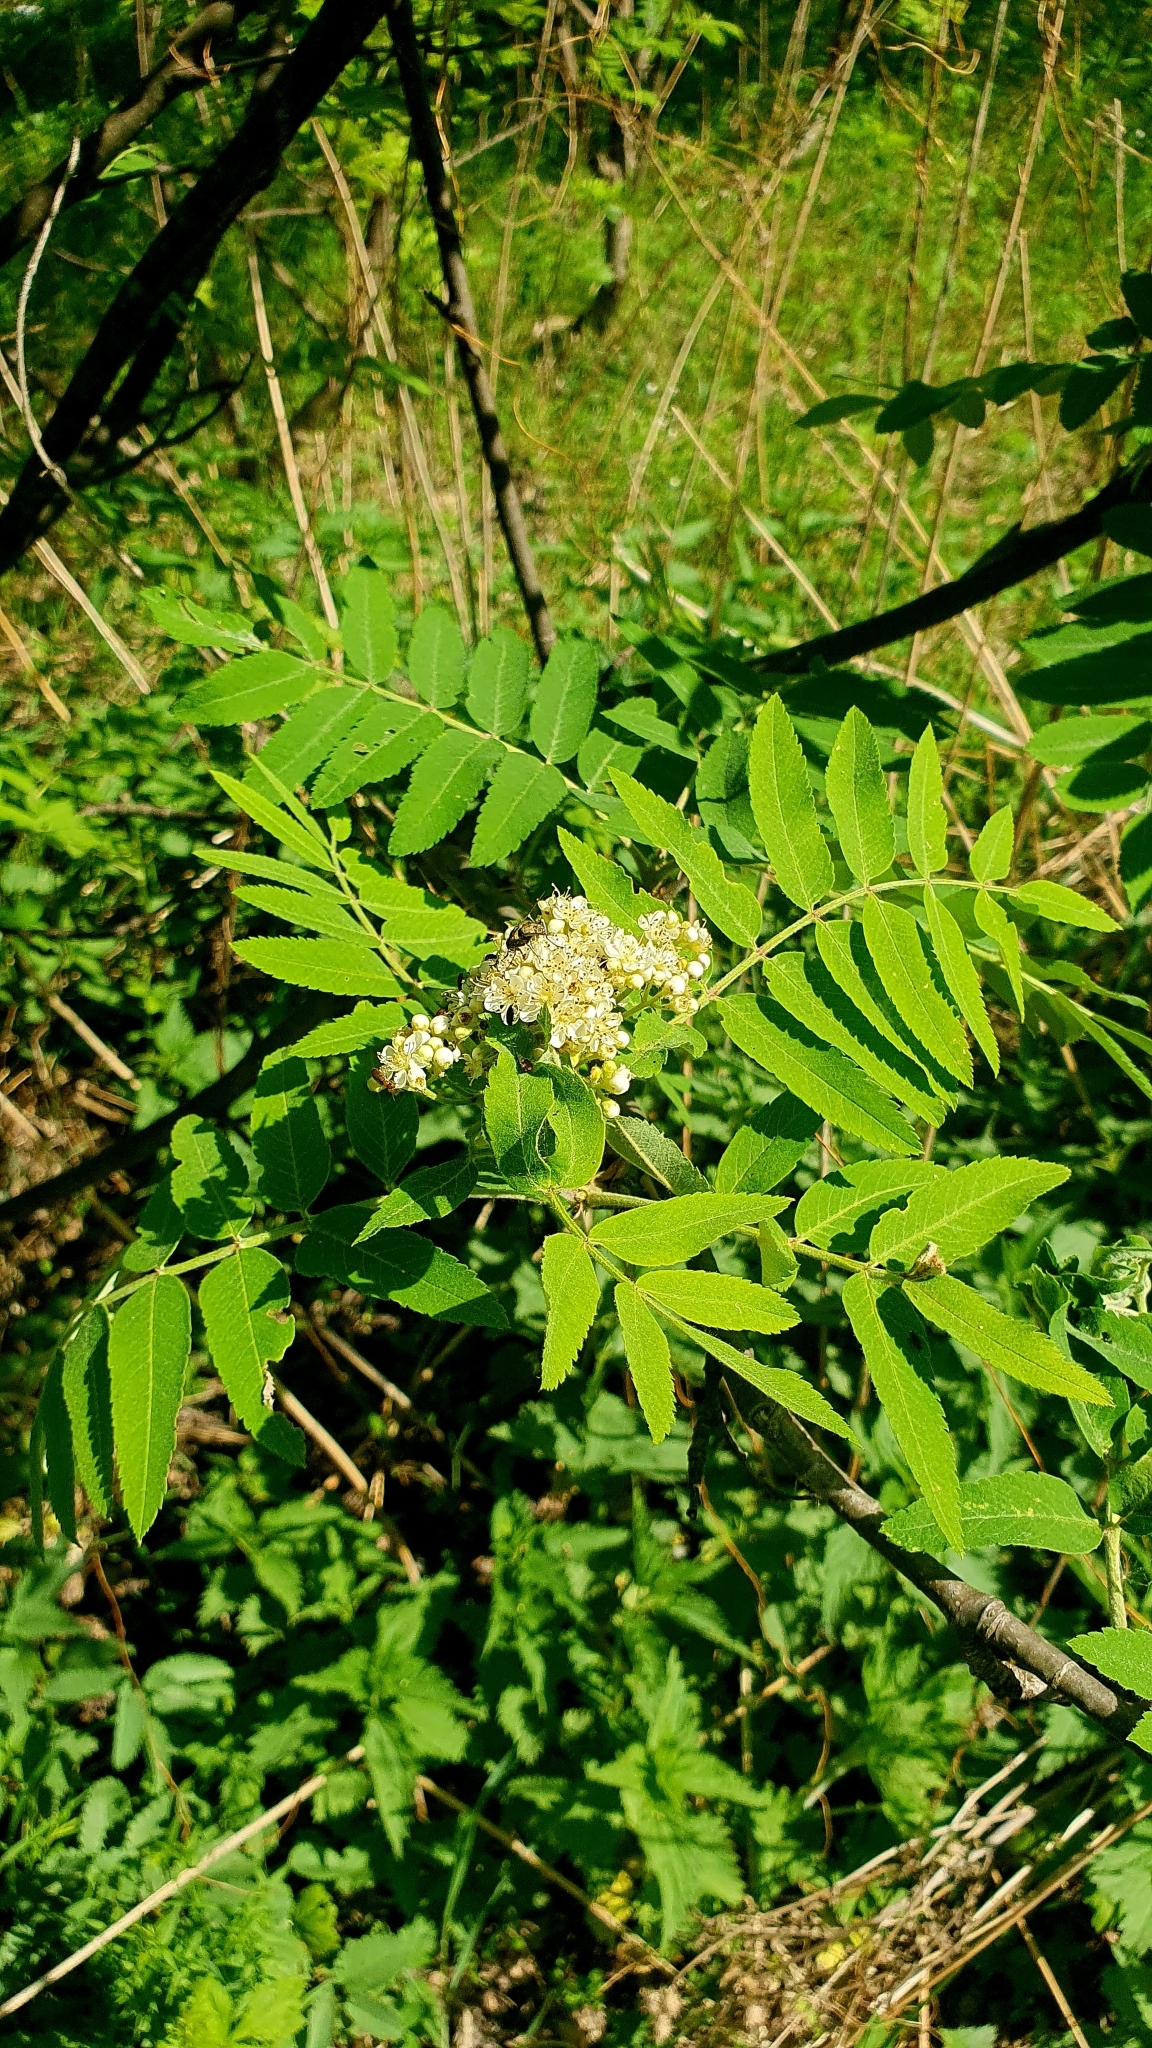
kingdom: Plantae
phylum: Tracheophyta
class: Magnoliopsida
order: Rosales
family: Rosaceae
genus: Sorbus
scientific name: Sorbus aucuparia
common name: Rowan
